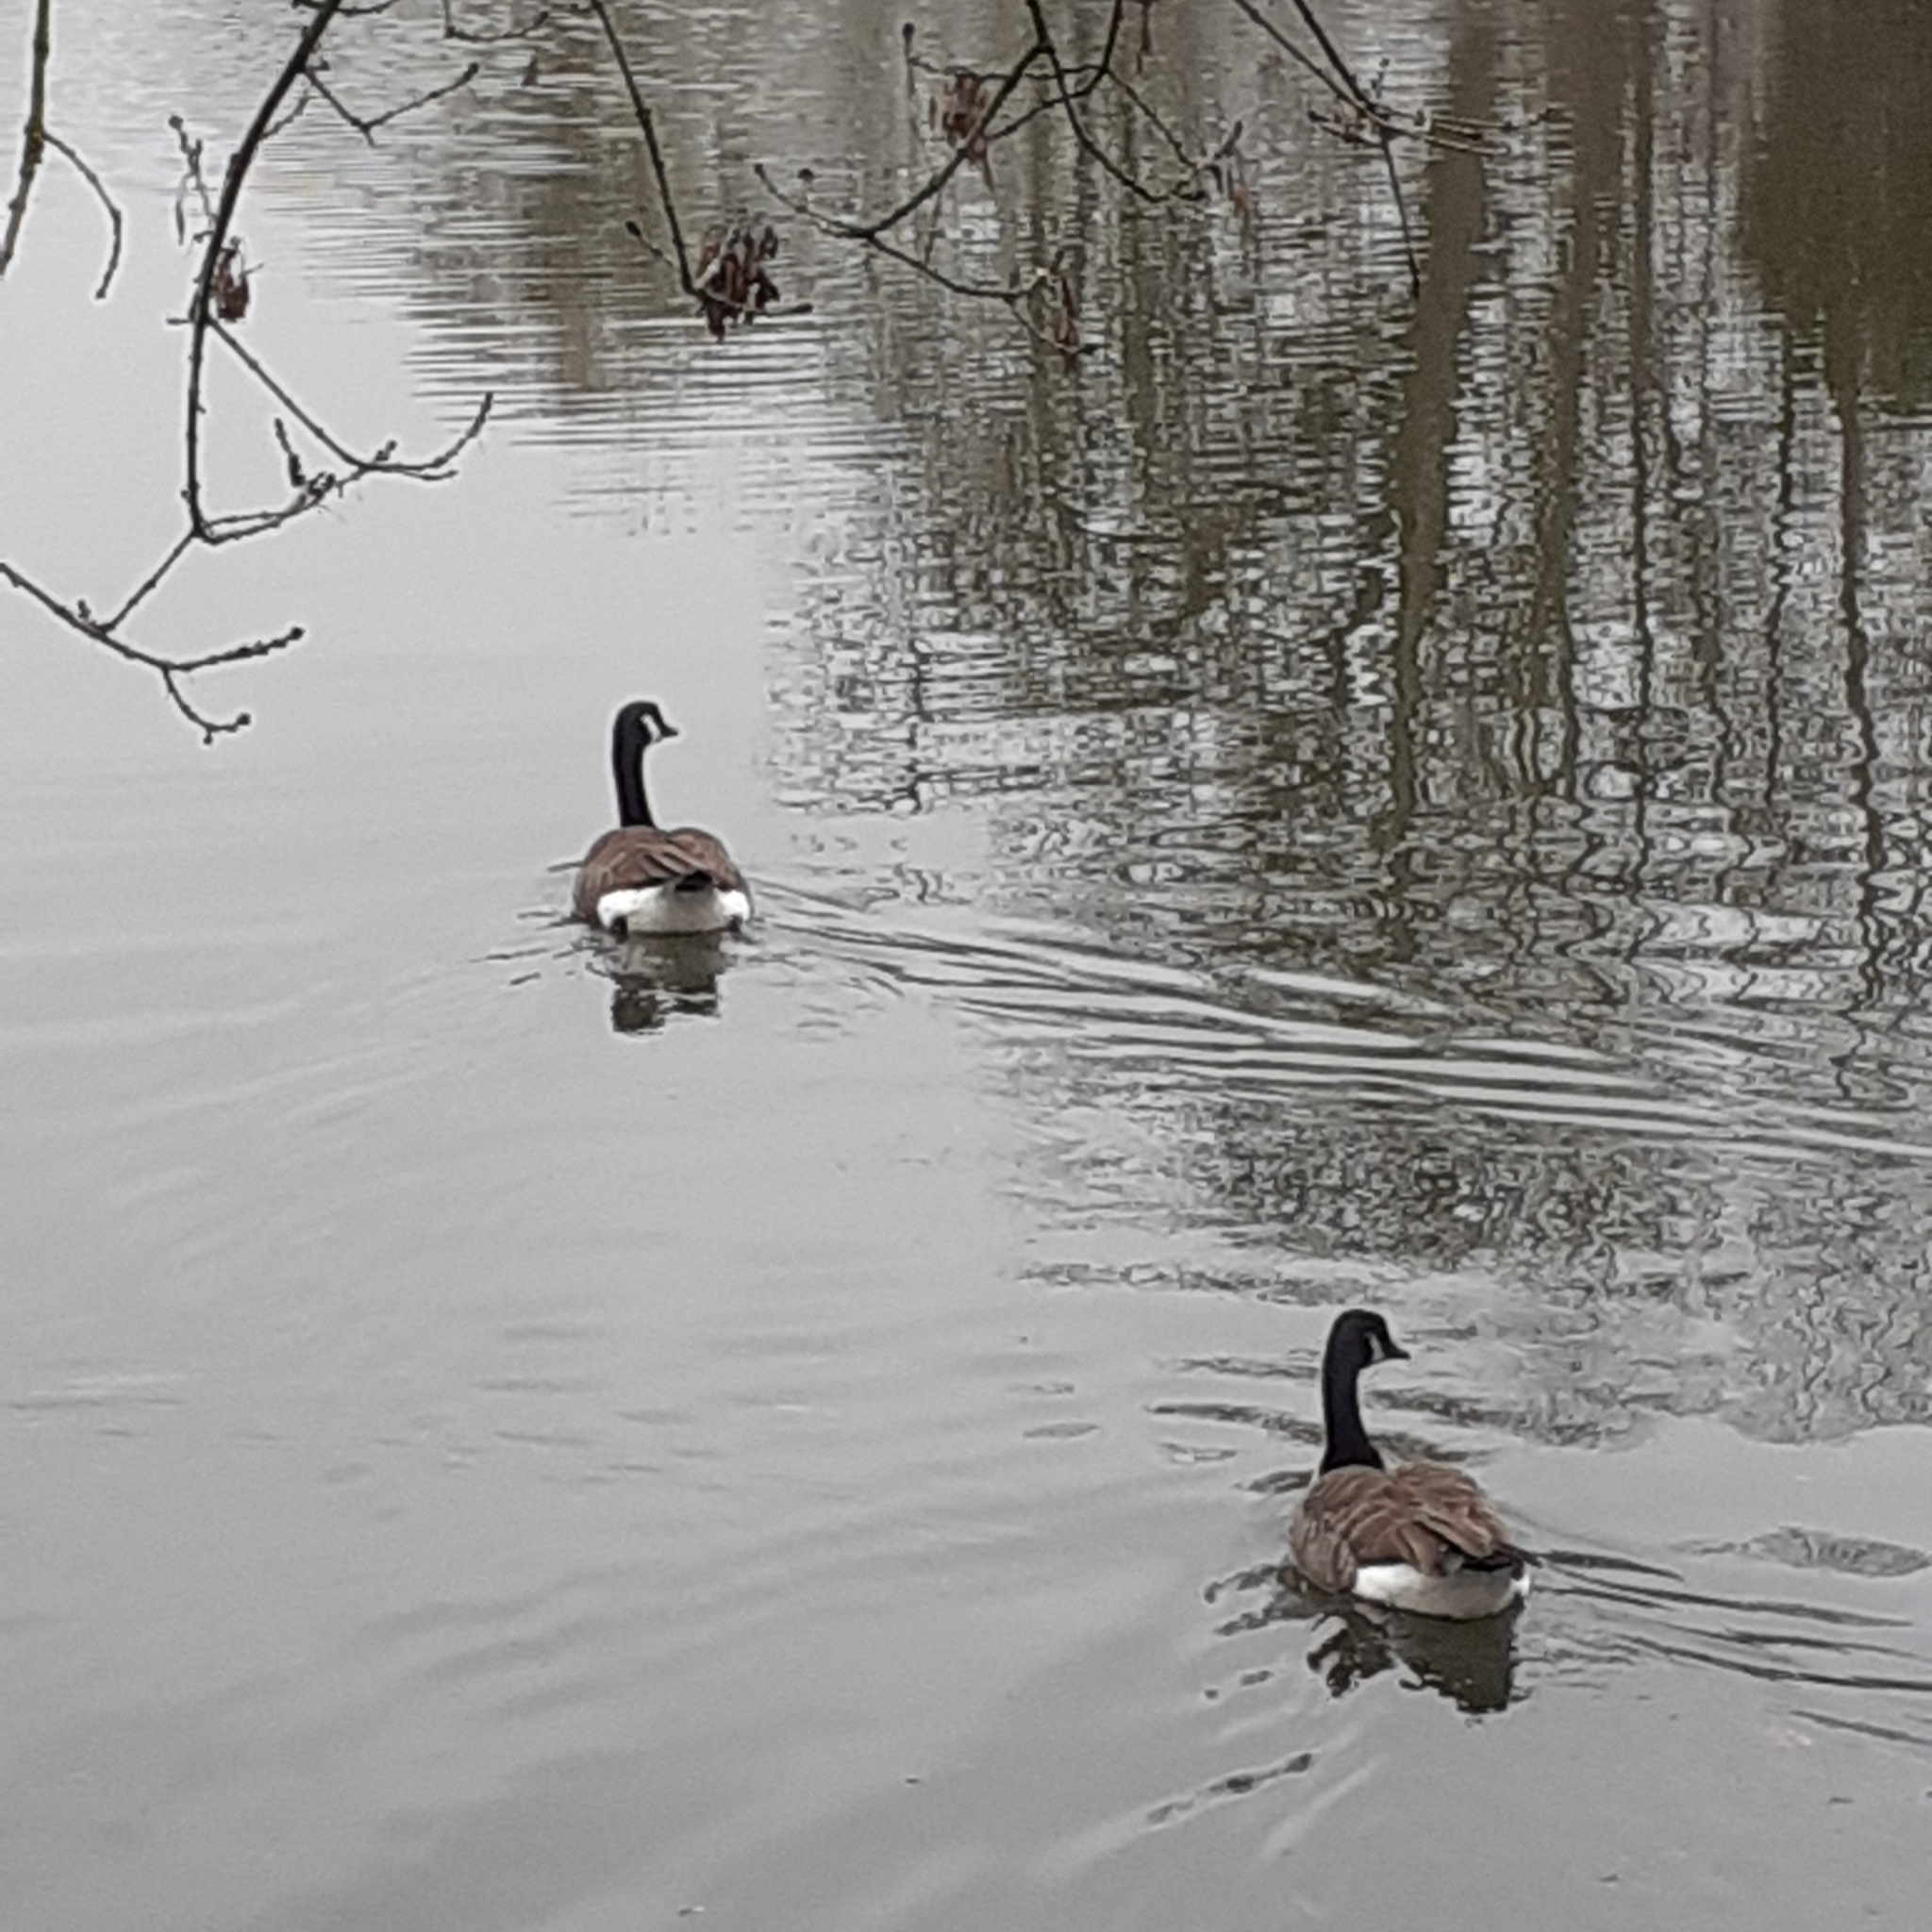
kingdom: Animalia
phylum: Chordata
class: Aves
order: Anseriformes
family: Anatidae
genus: Branta
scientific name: Branta canadensis
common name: Canada goose
